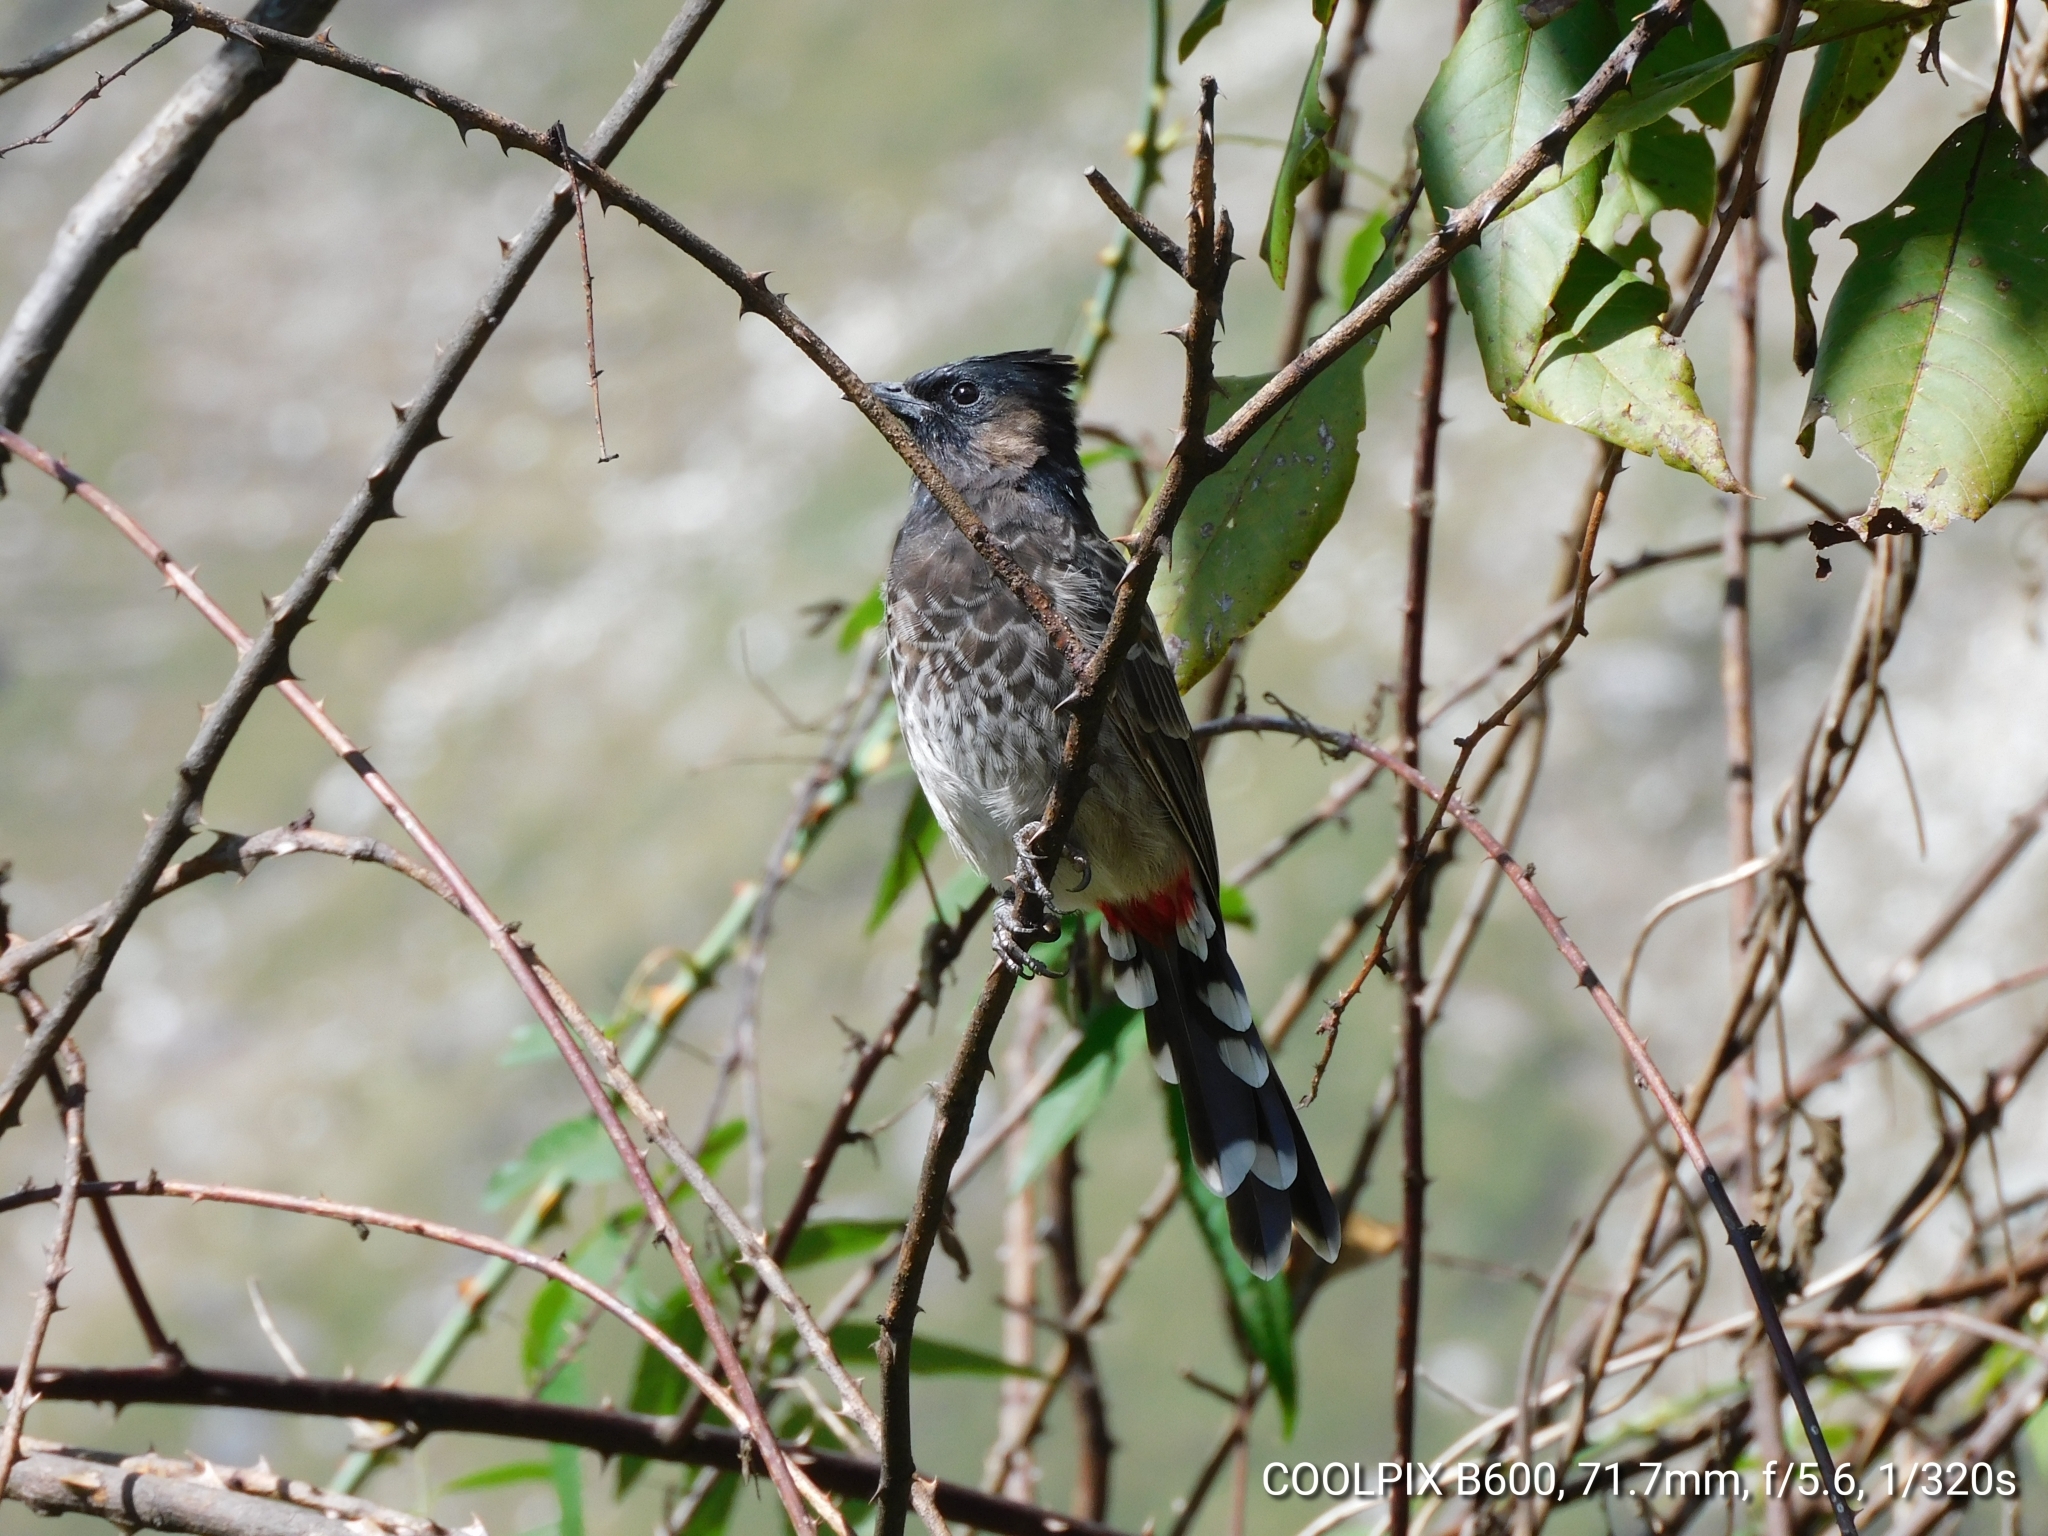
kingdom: Animalia
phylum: Chordata
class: Aves
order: Passeriformes
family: Pycnonotidae
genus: Pycnonotus
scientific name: Pycnonotus cafer
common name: Red-vented bulbul
